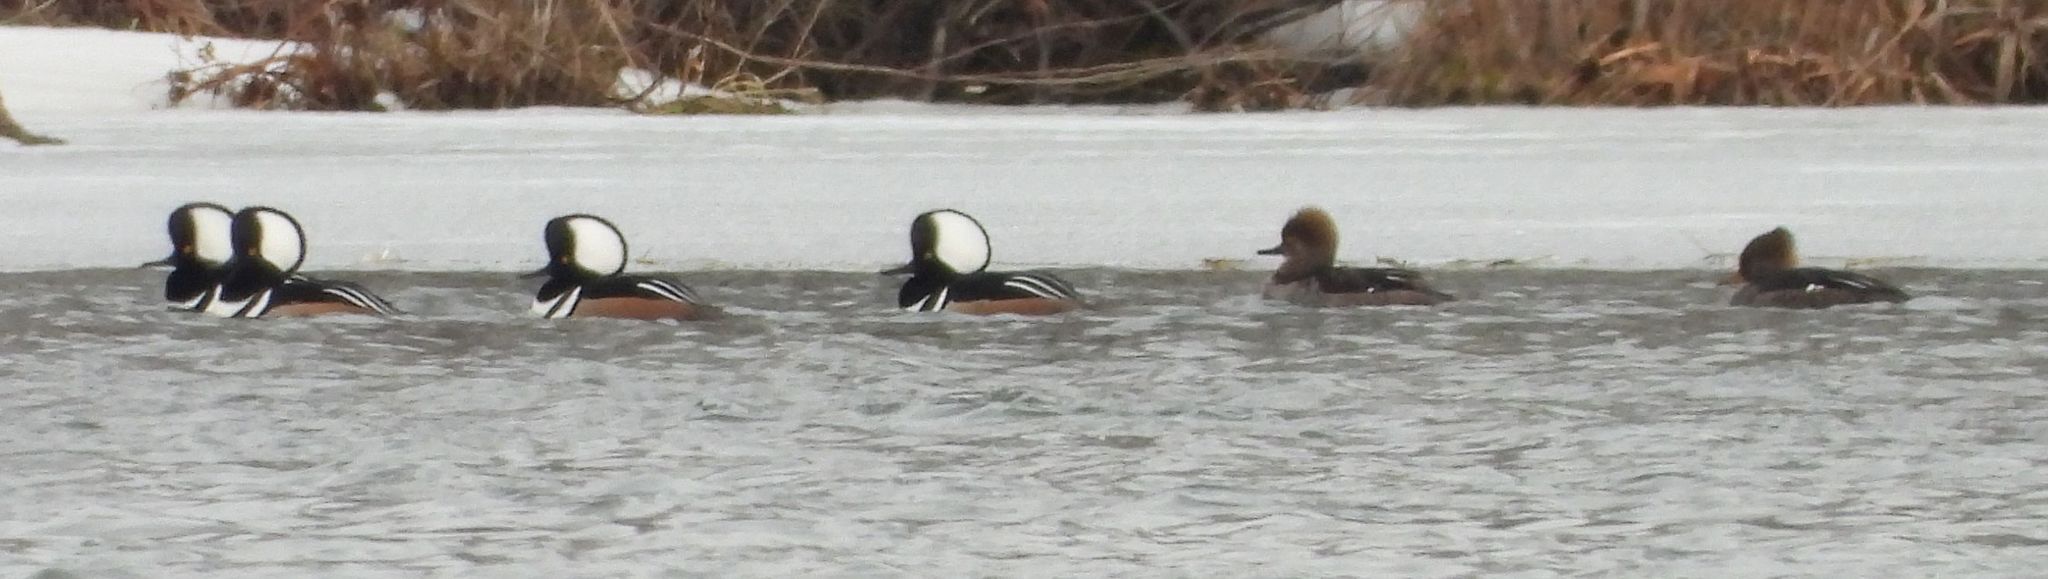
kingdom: Animalia
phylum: Chordata
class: Aves
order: Anseriformes
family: Anatidae
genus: Lophodytes
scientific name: Lophodytes cucullatus
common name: Hooded merganser
